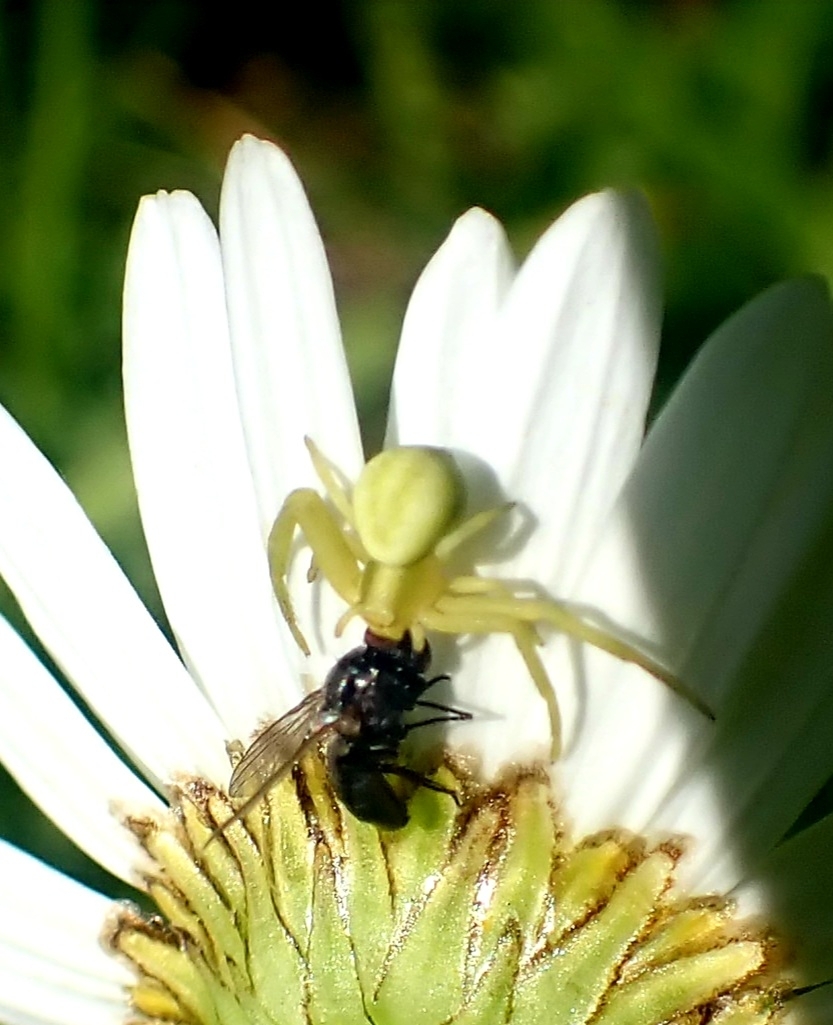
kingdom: Animalia
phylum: Arthropoda
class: Arachnida
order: Araneae
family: Thomisidae
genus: Misumena
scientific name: Misumena vatia
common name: Goldenrod crab spider
